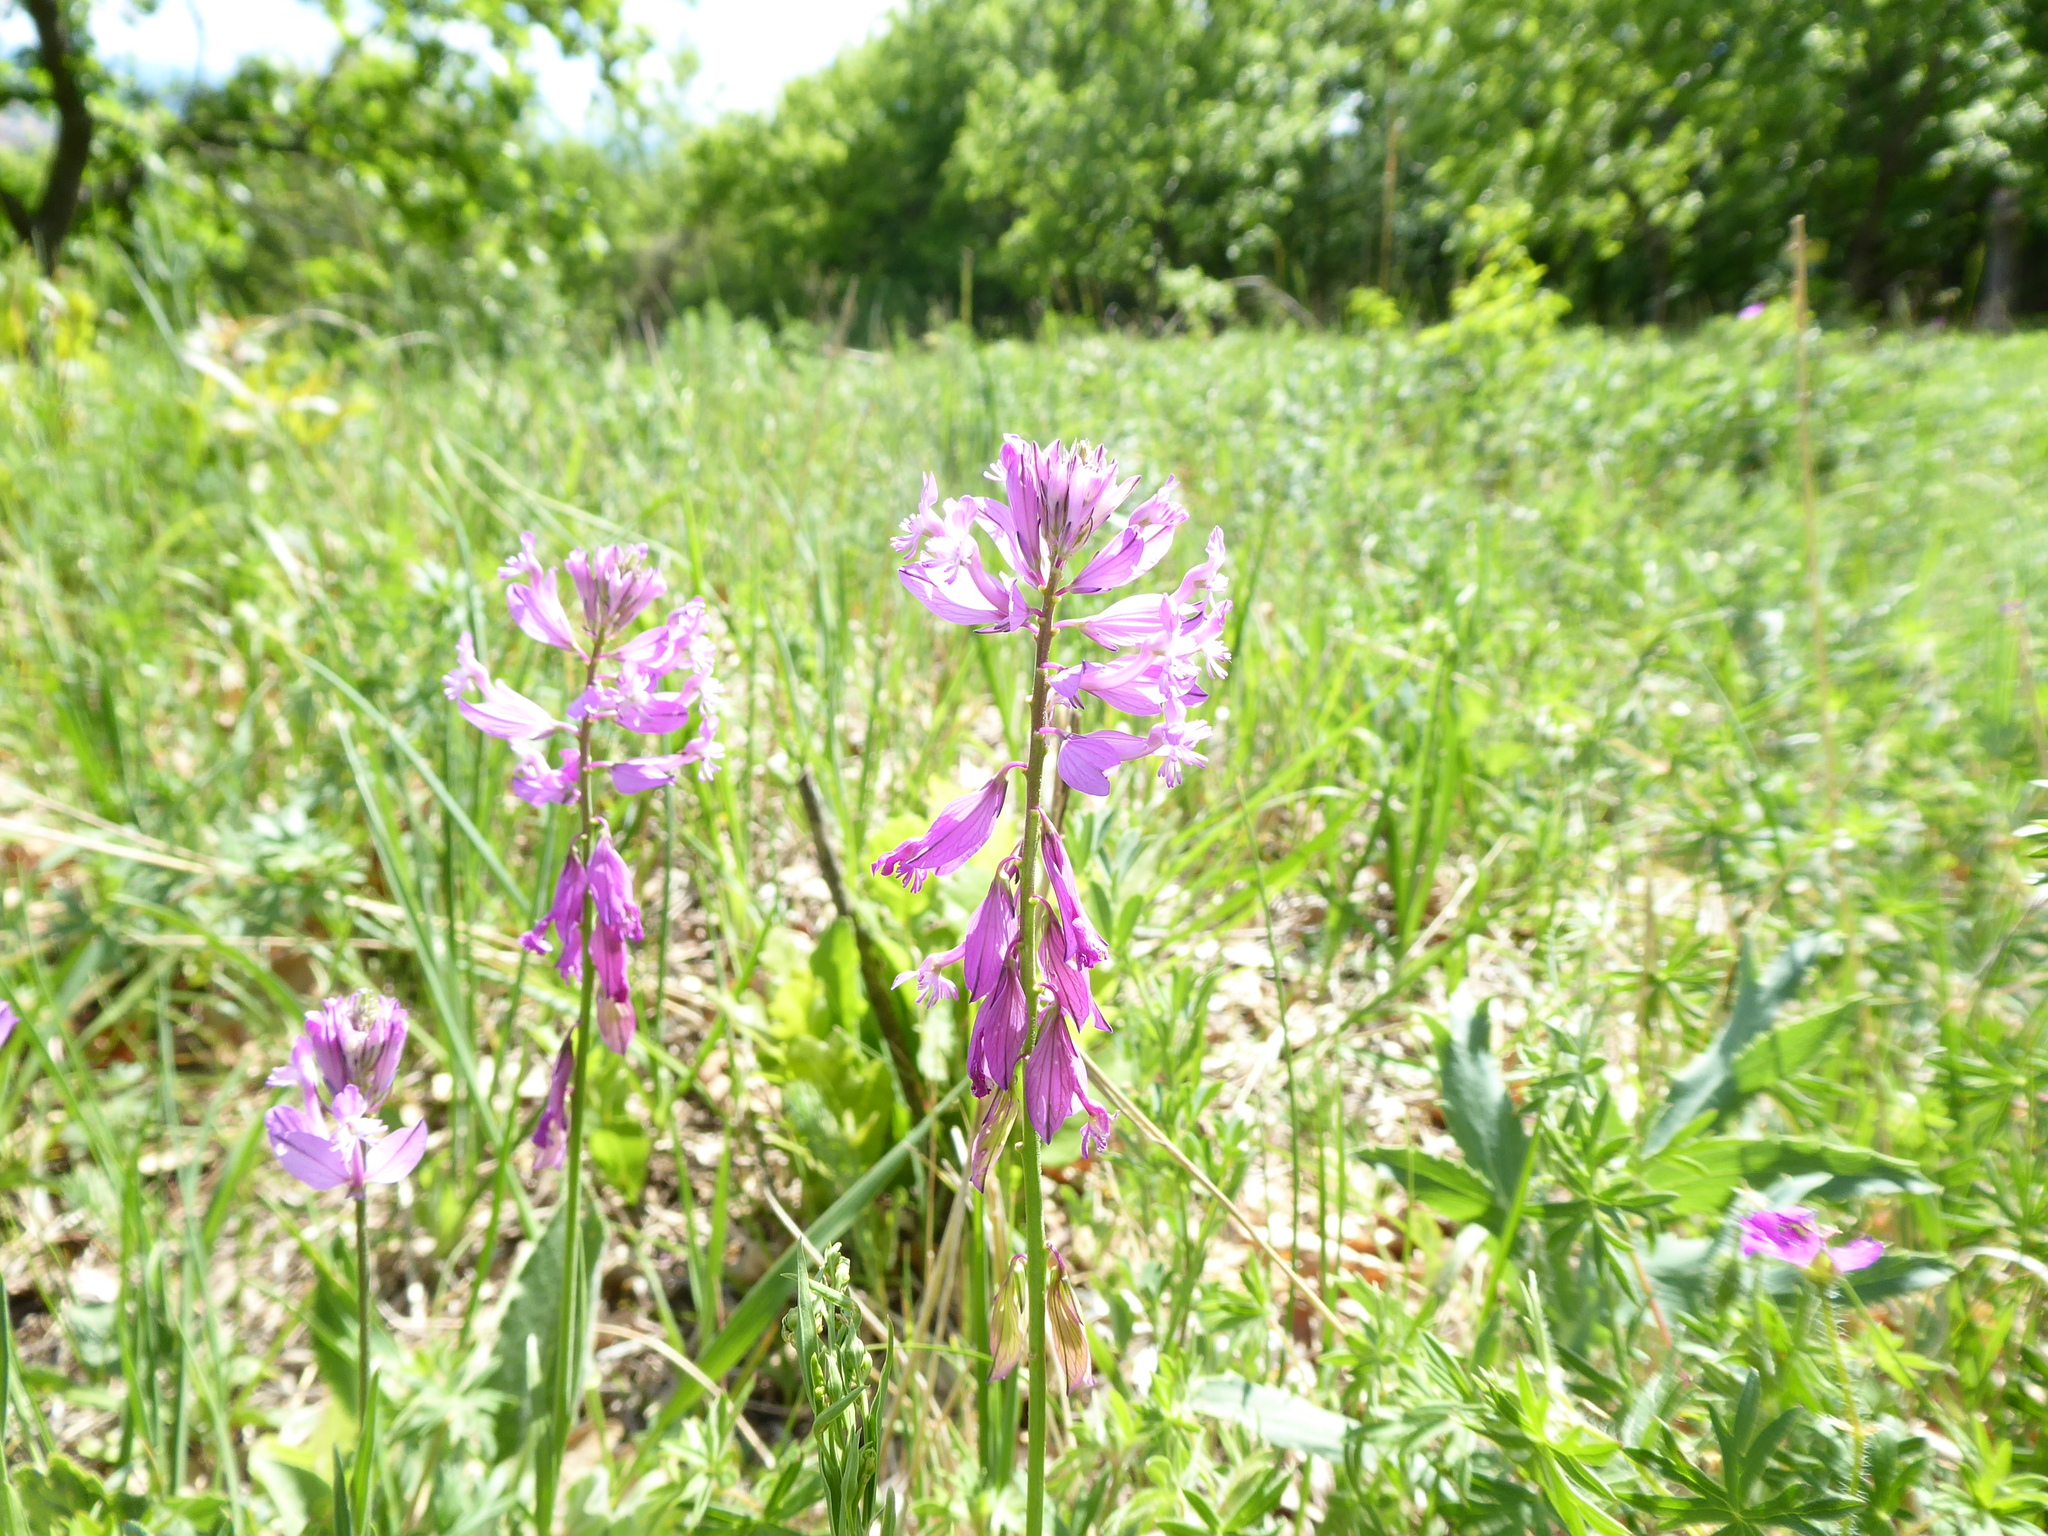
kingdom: Plantae
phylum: Tracheophyta
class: Magnoliopsida
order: Fabales
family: Polygalaceae
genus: Polygala
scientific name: Polygala major
